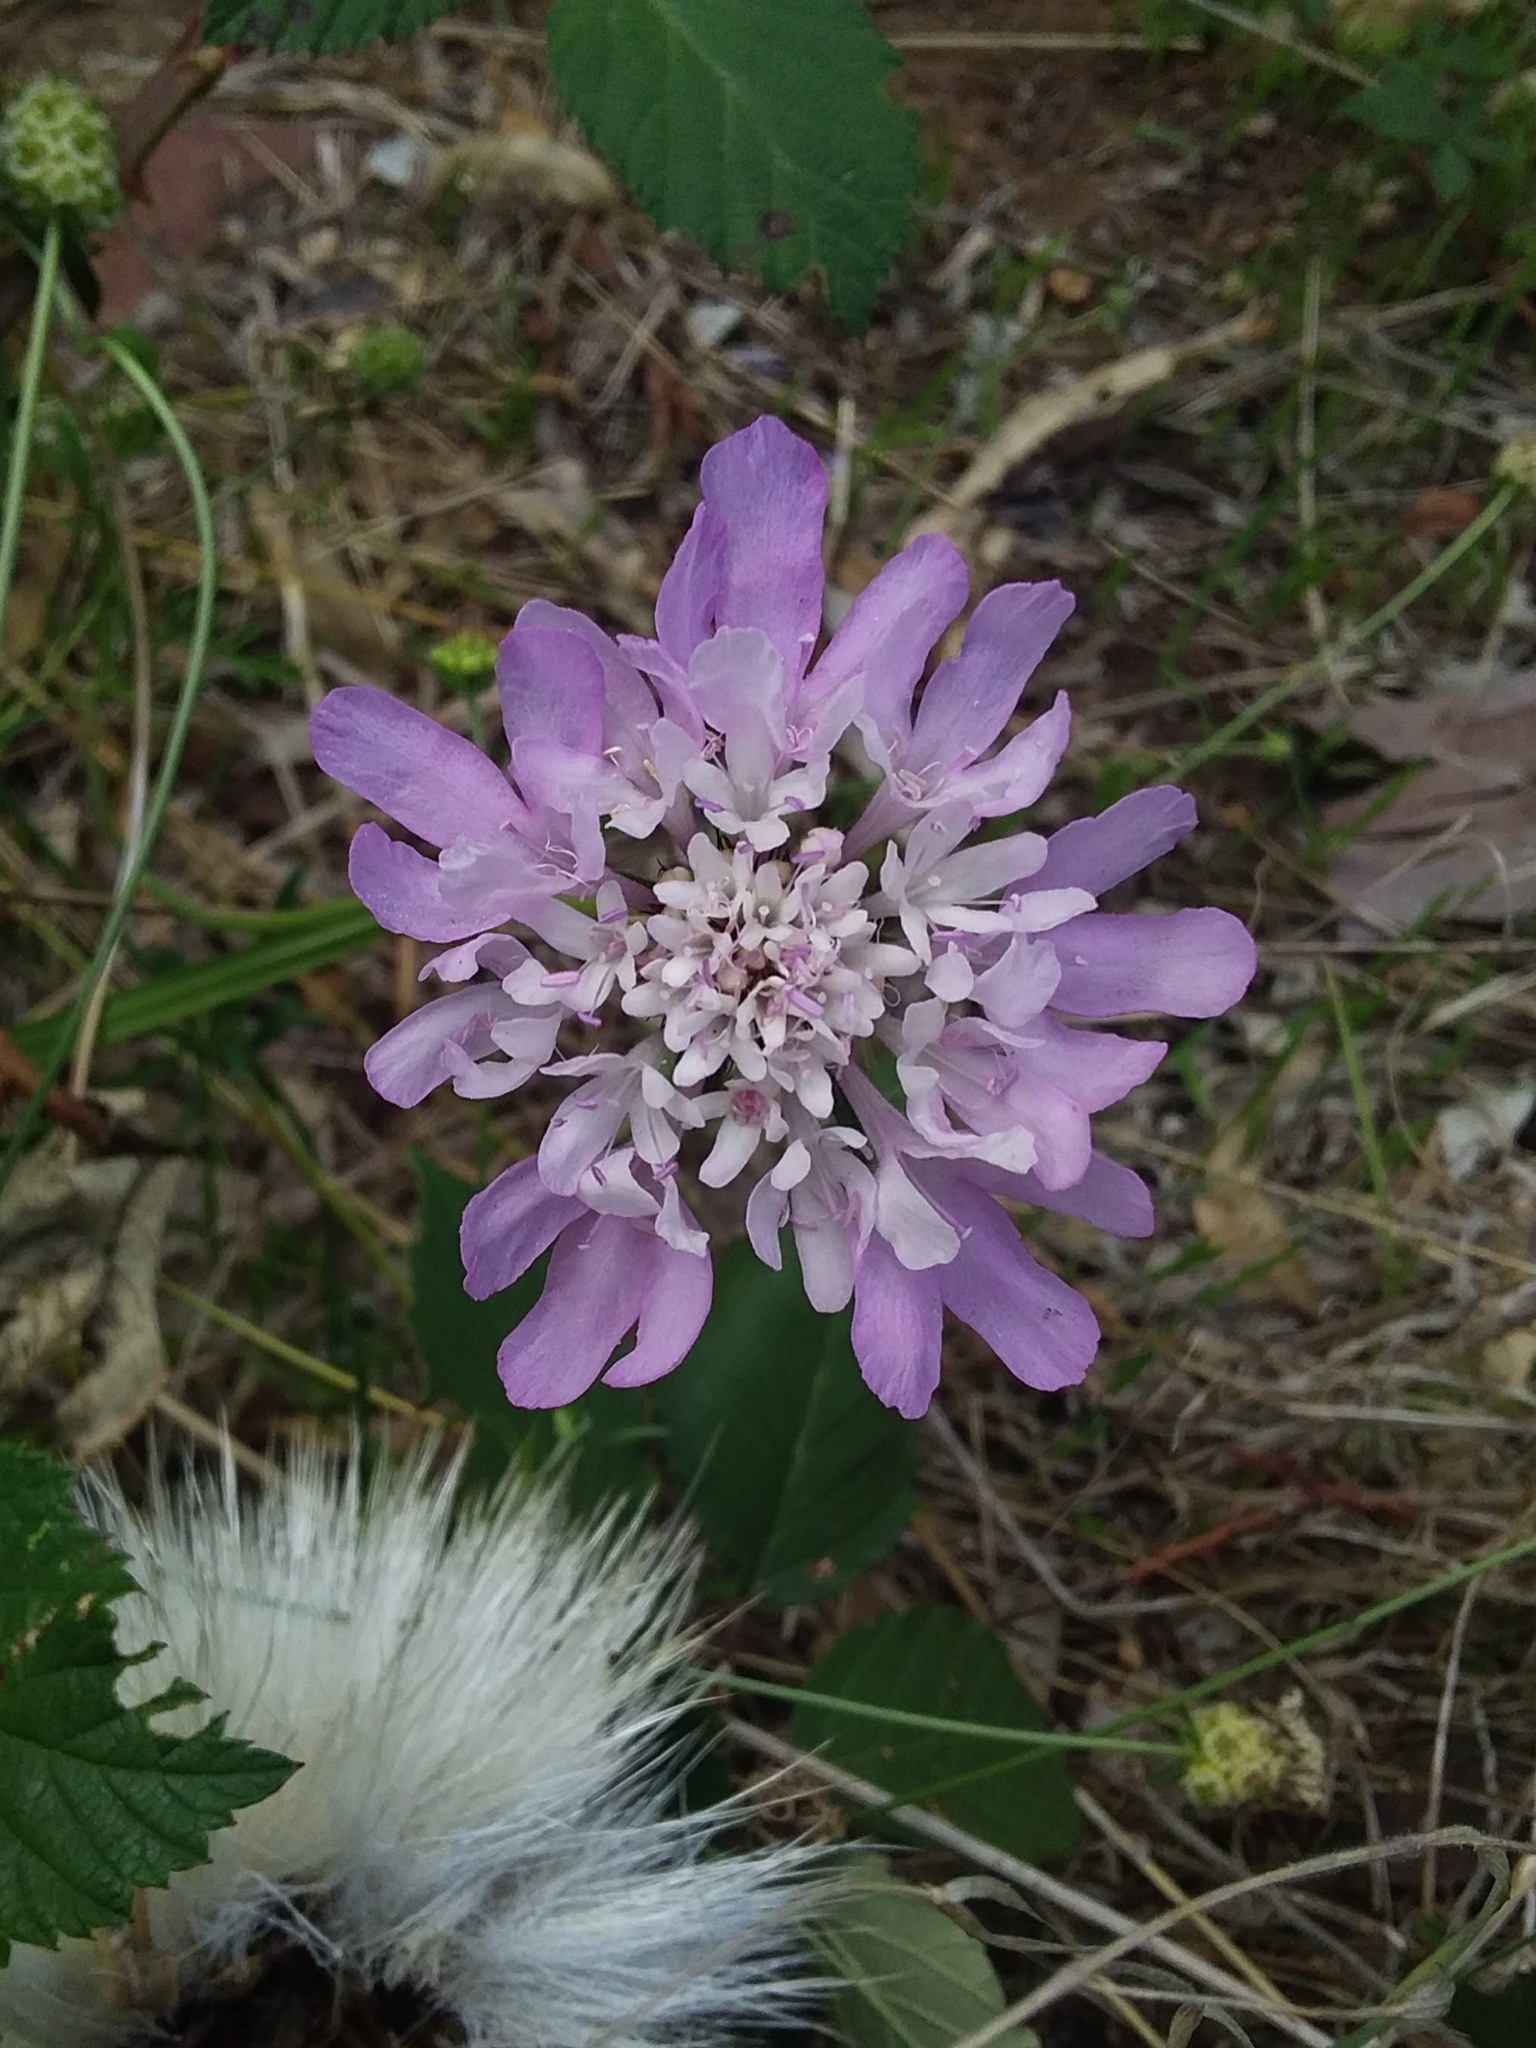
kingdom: Plantae
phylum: Tracheophyta
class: Magnoliopsida
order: Dipsacales
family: Caprifoliaceae
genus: Sixalix
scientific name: Sixalix atropurpurea
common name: Sweet scabious
